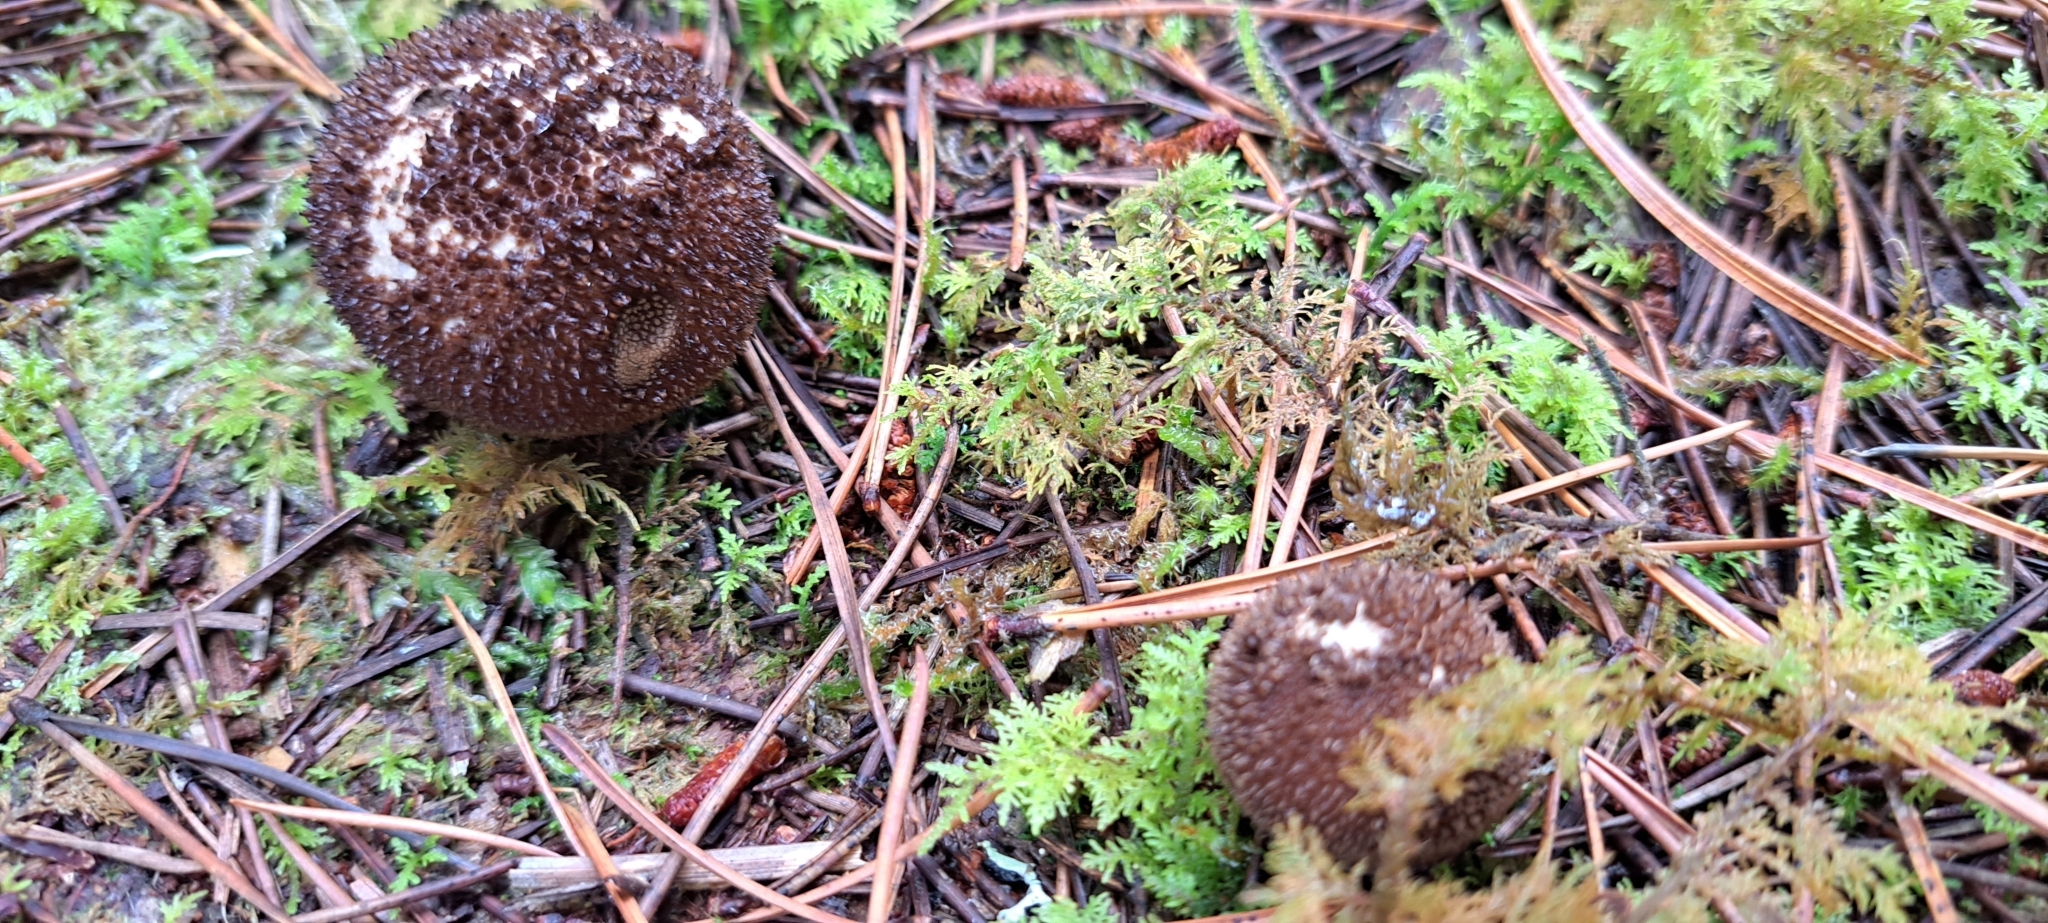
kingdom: Fungi
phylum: Basidiomycota
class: Agaricomycetes
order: Agaricales
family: Lycoperdaceae
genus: Lycoperdon
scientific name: Lycoperdon nigrescens
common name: Blackish puffball
